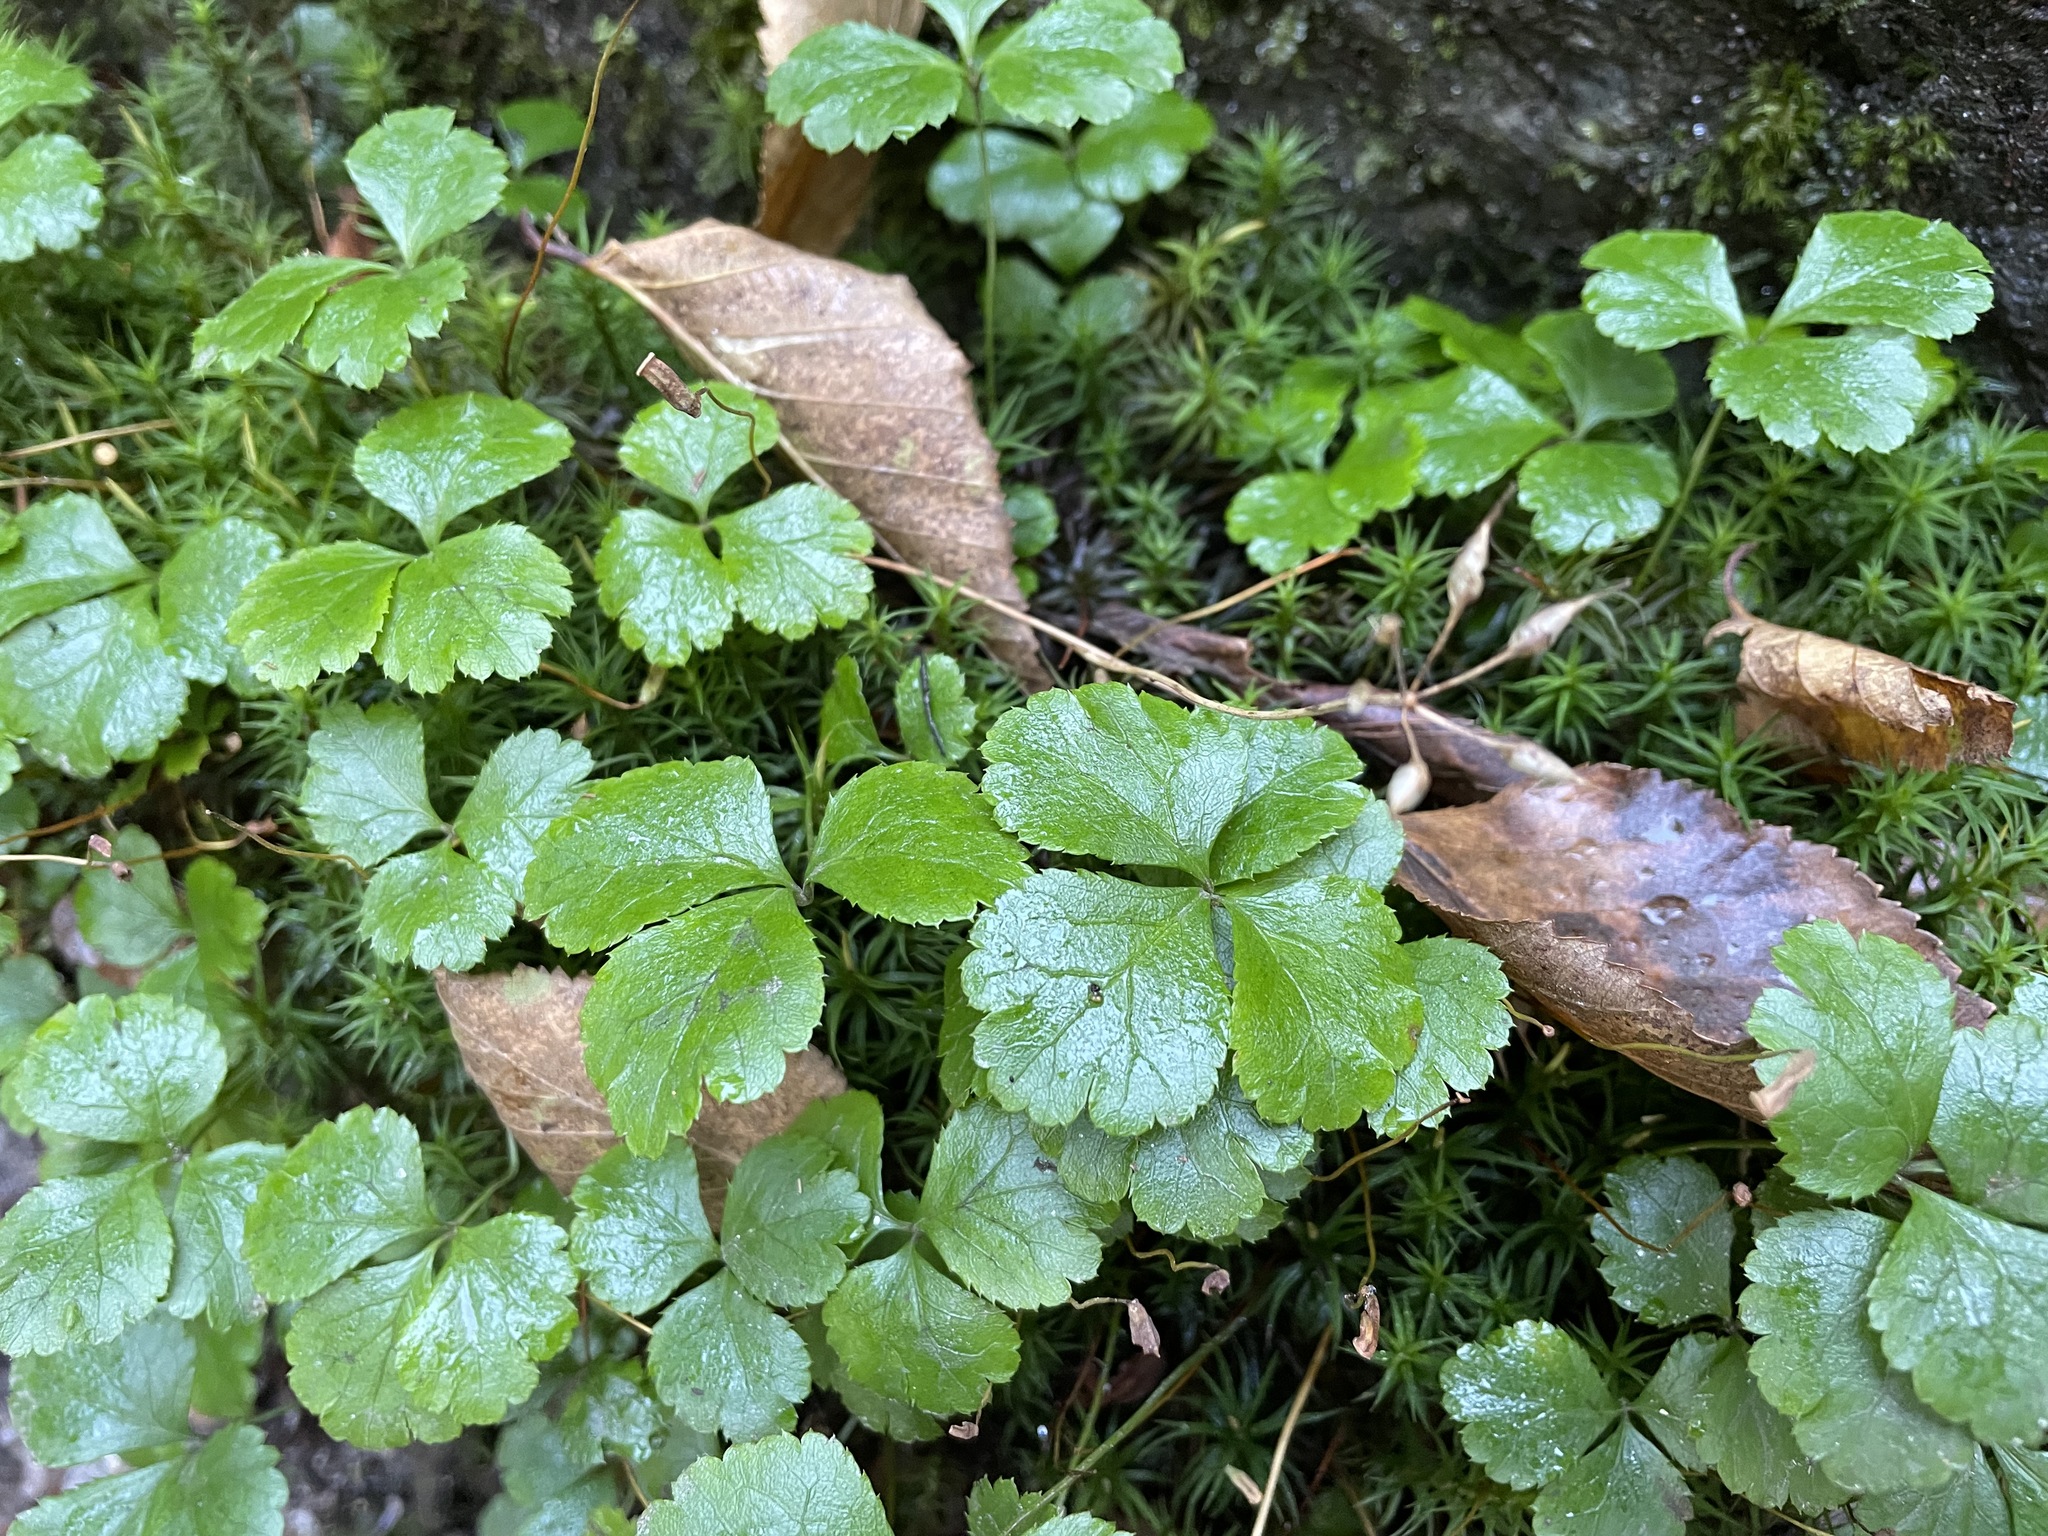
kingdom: Plantae
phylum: Tracheophyta
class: Magnoliopsida
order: Ranunculales
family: Ranunculaceae
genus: Coptis
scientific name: Coptis trifolia
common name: Canker-root
